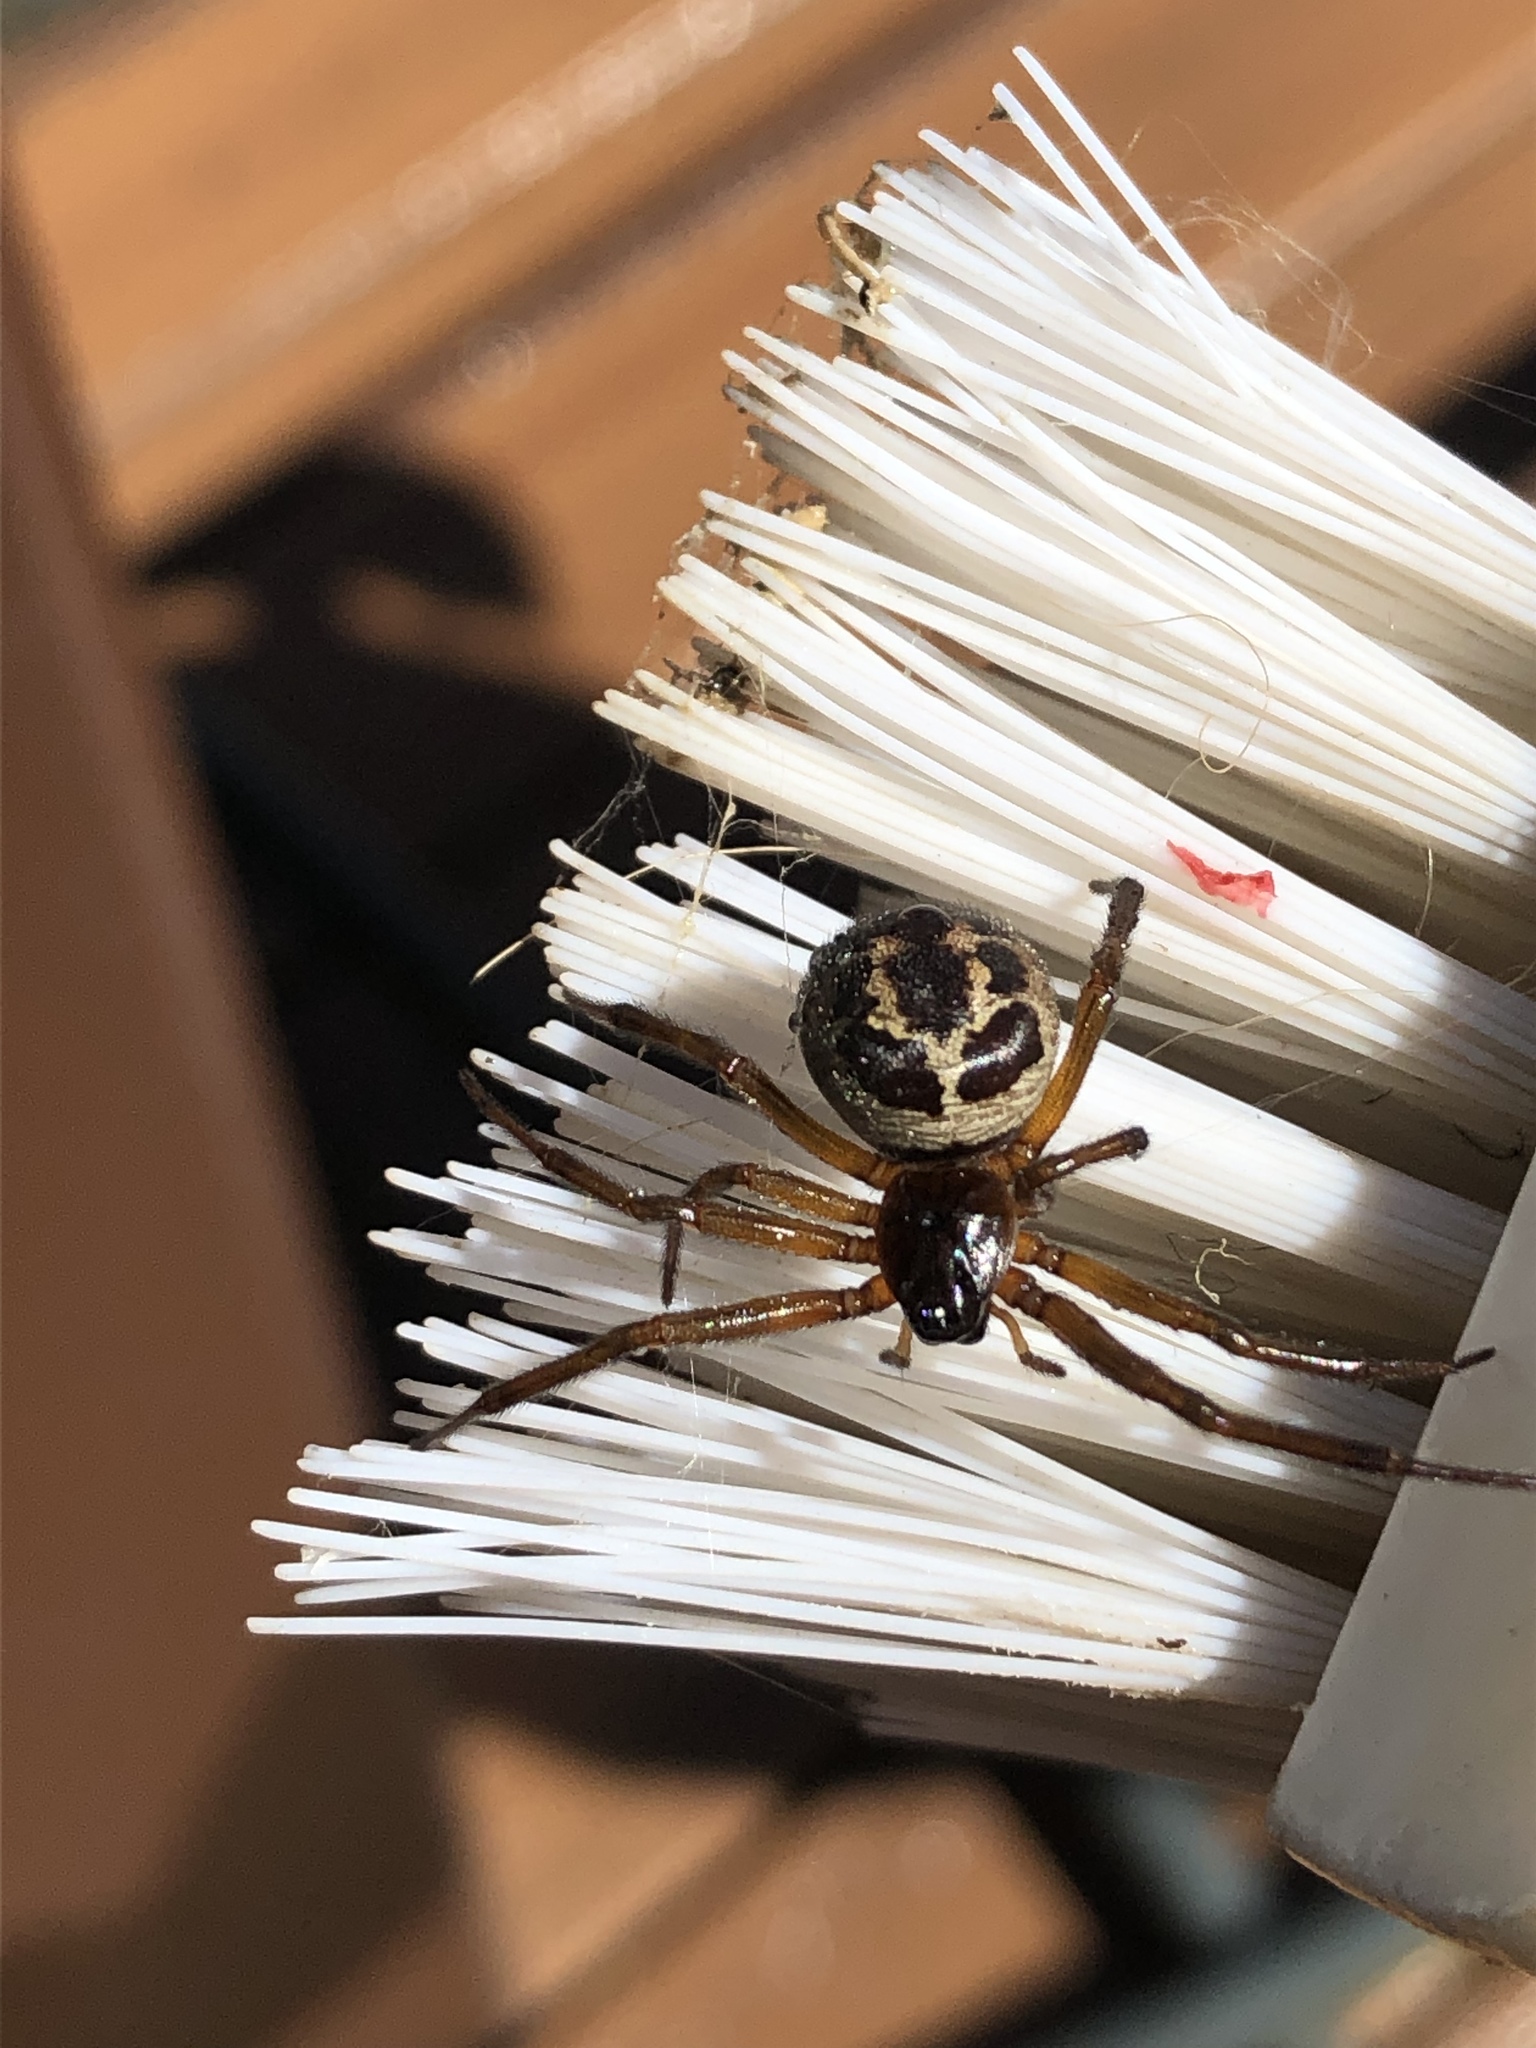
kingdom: Animalia
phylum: Arthropoda
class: Arachnida
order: Araneae
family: Theridiidae
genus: Steatoda
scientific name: Steatoda nobilis
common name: Cobweb weaver
